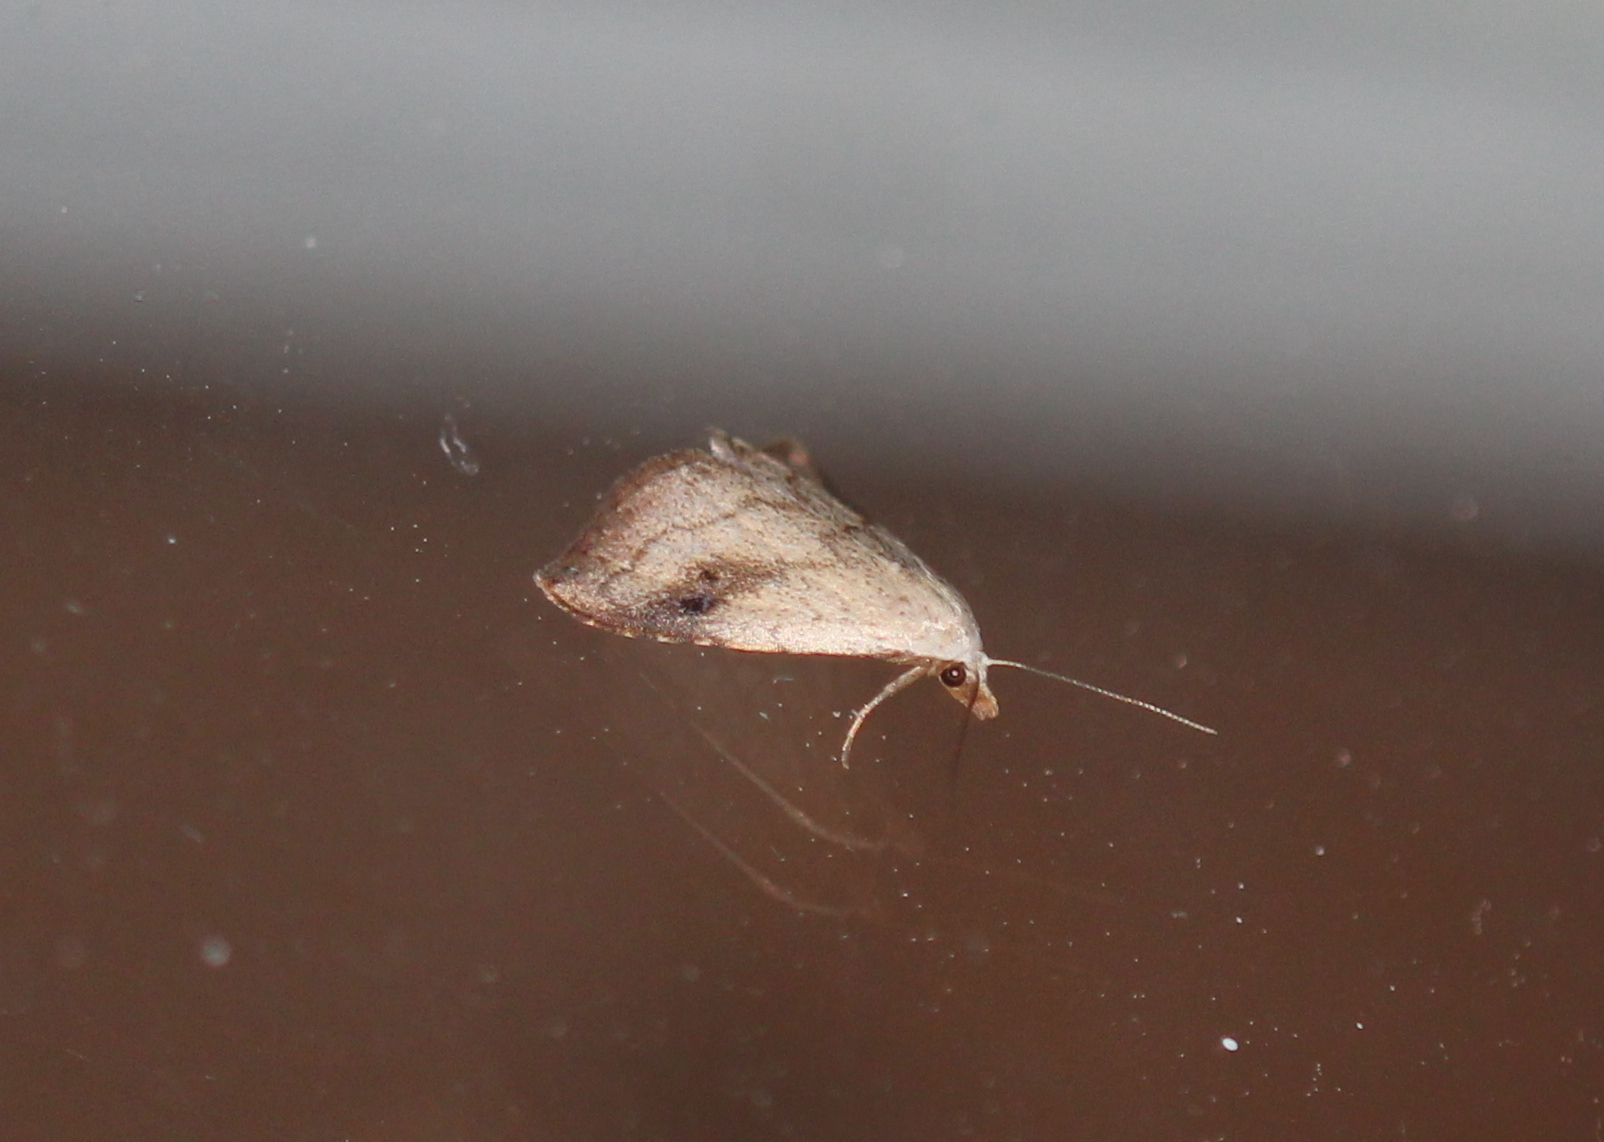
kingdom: Animalia
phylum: Arthropoda
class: Insecta
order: Lepidoptera
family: Erebidae
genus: Rivula
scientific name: Rivula propinqualis
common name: Spotted grass moth
